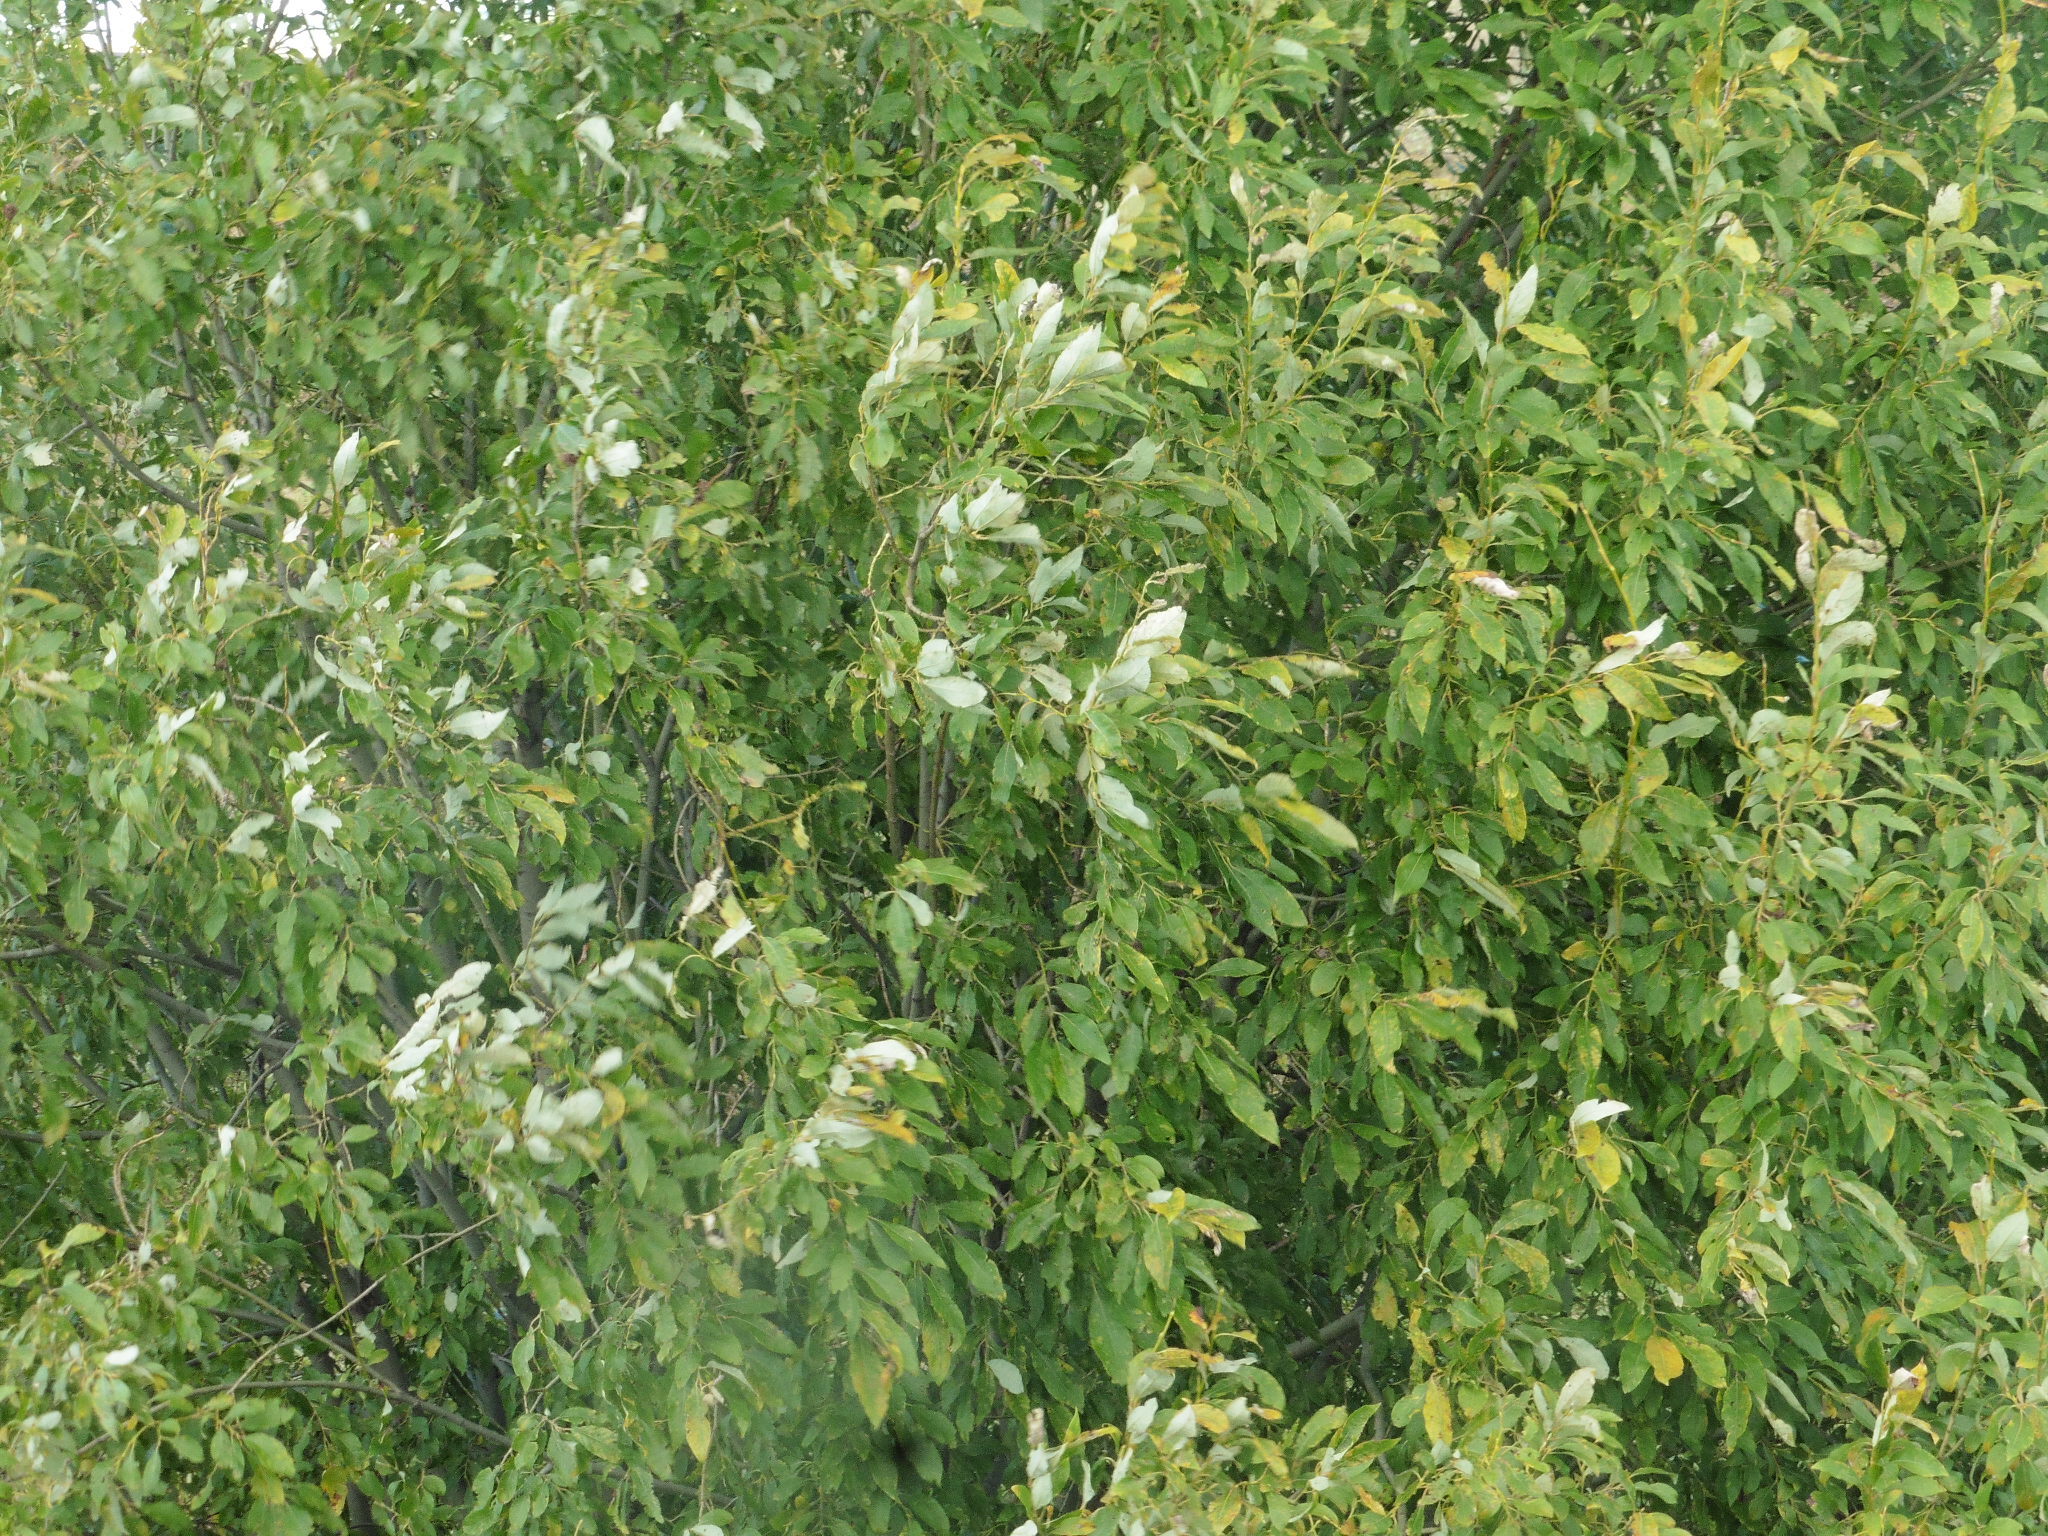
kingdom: Plantae
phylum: Tracheophyta
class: Magnoliopsida
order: Malpighiales
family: Salicaceae
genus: Salix
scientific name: Salix caprea
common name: Goat willow
